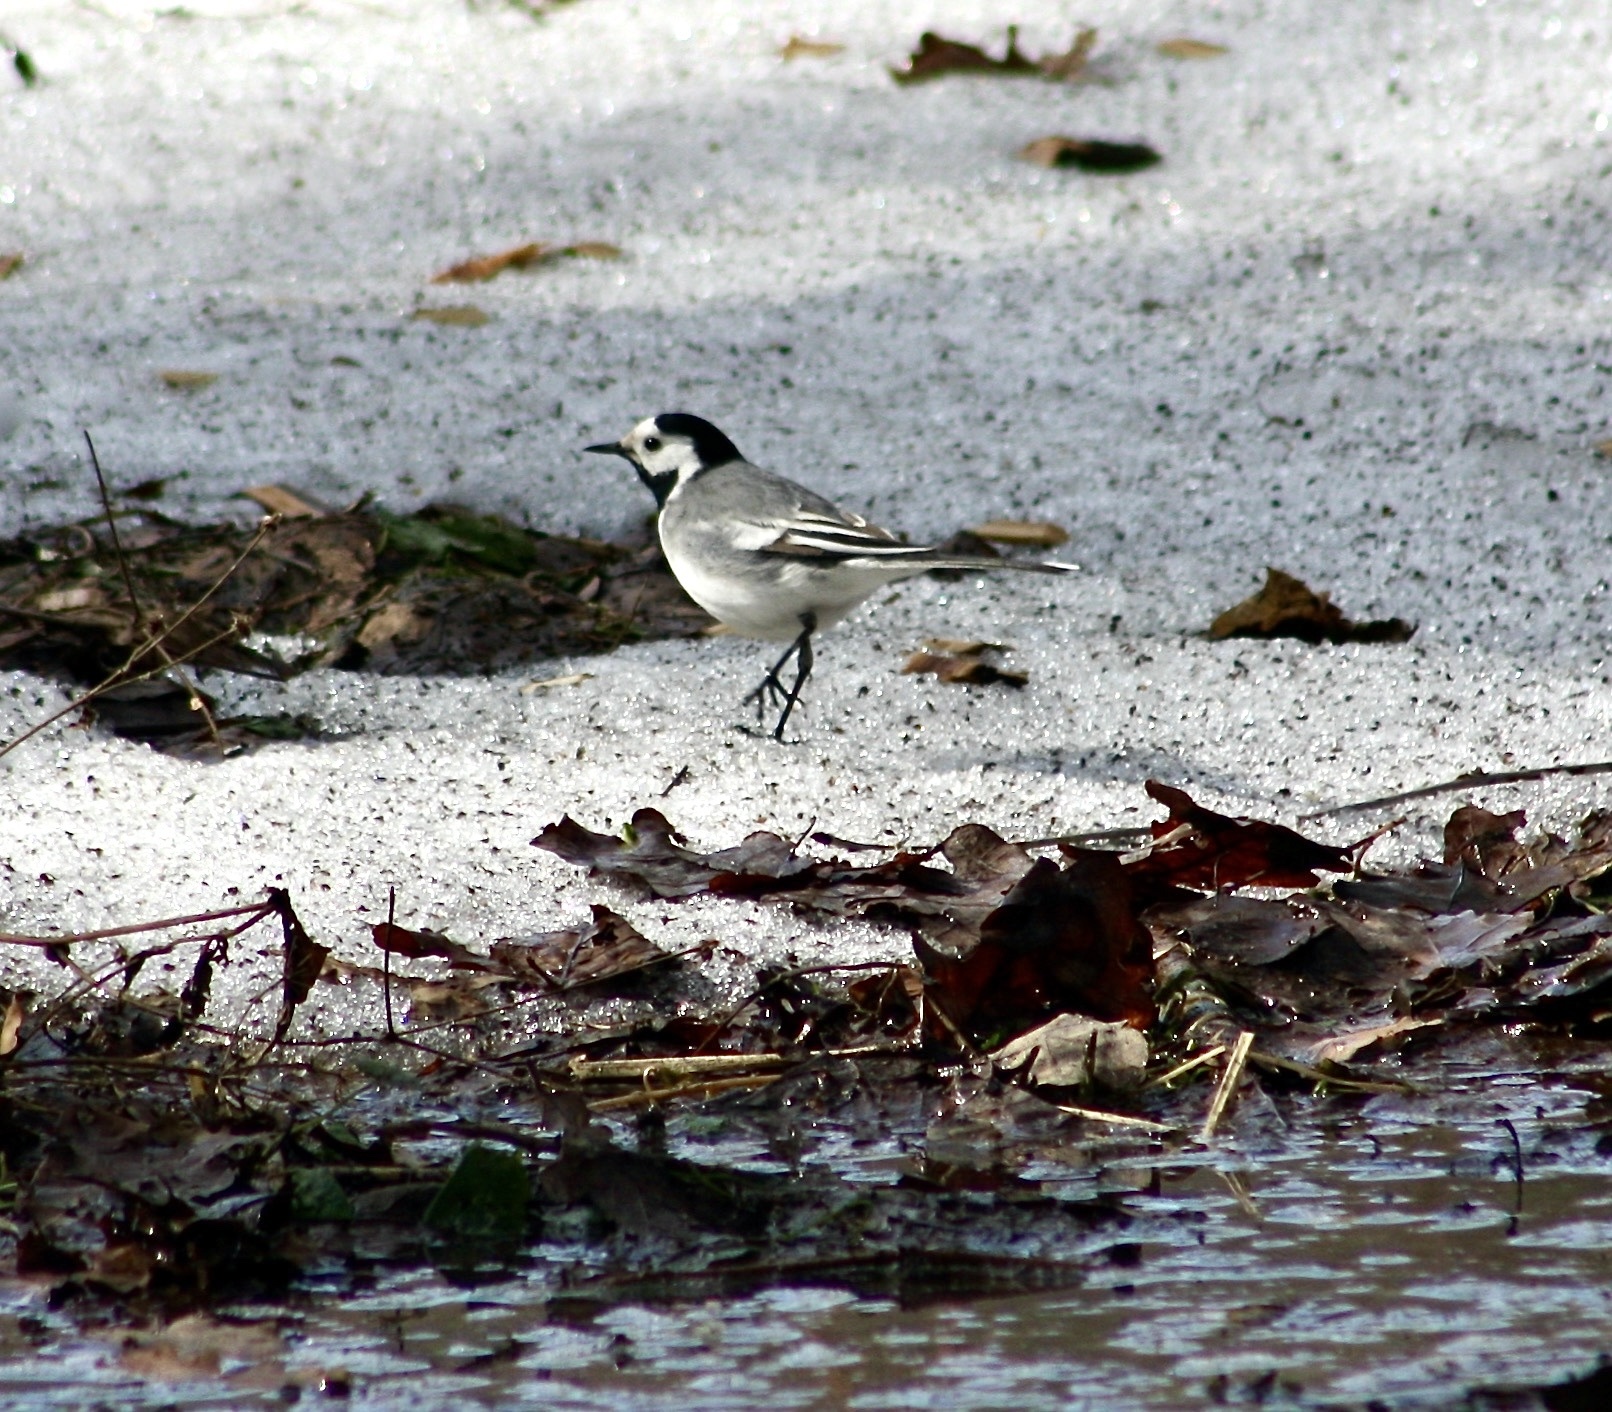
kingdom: Animalia
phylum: Chordata
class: Aves
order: Passeriformes
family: Motacillidae
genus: Motacilla
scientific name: Motacilla alba
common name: White wagtail
